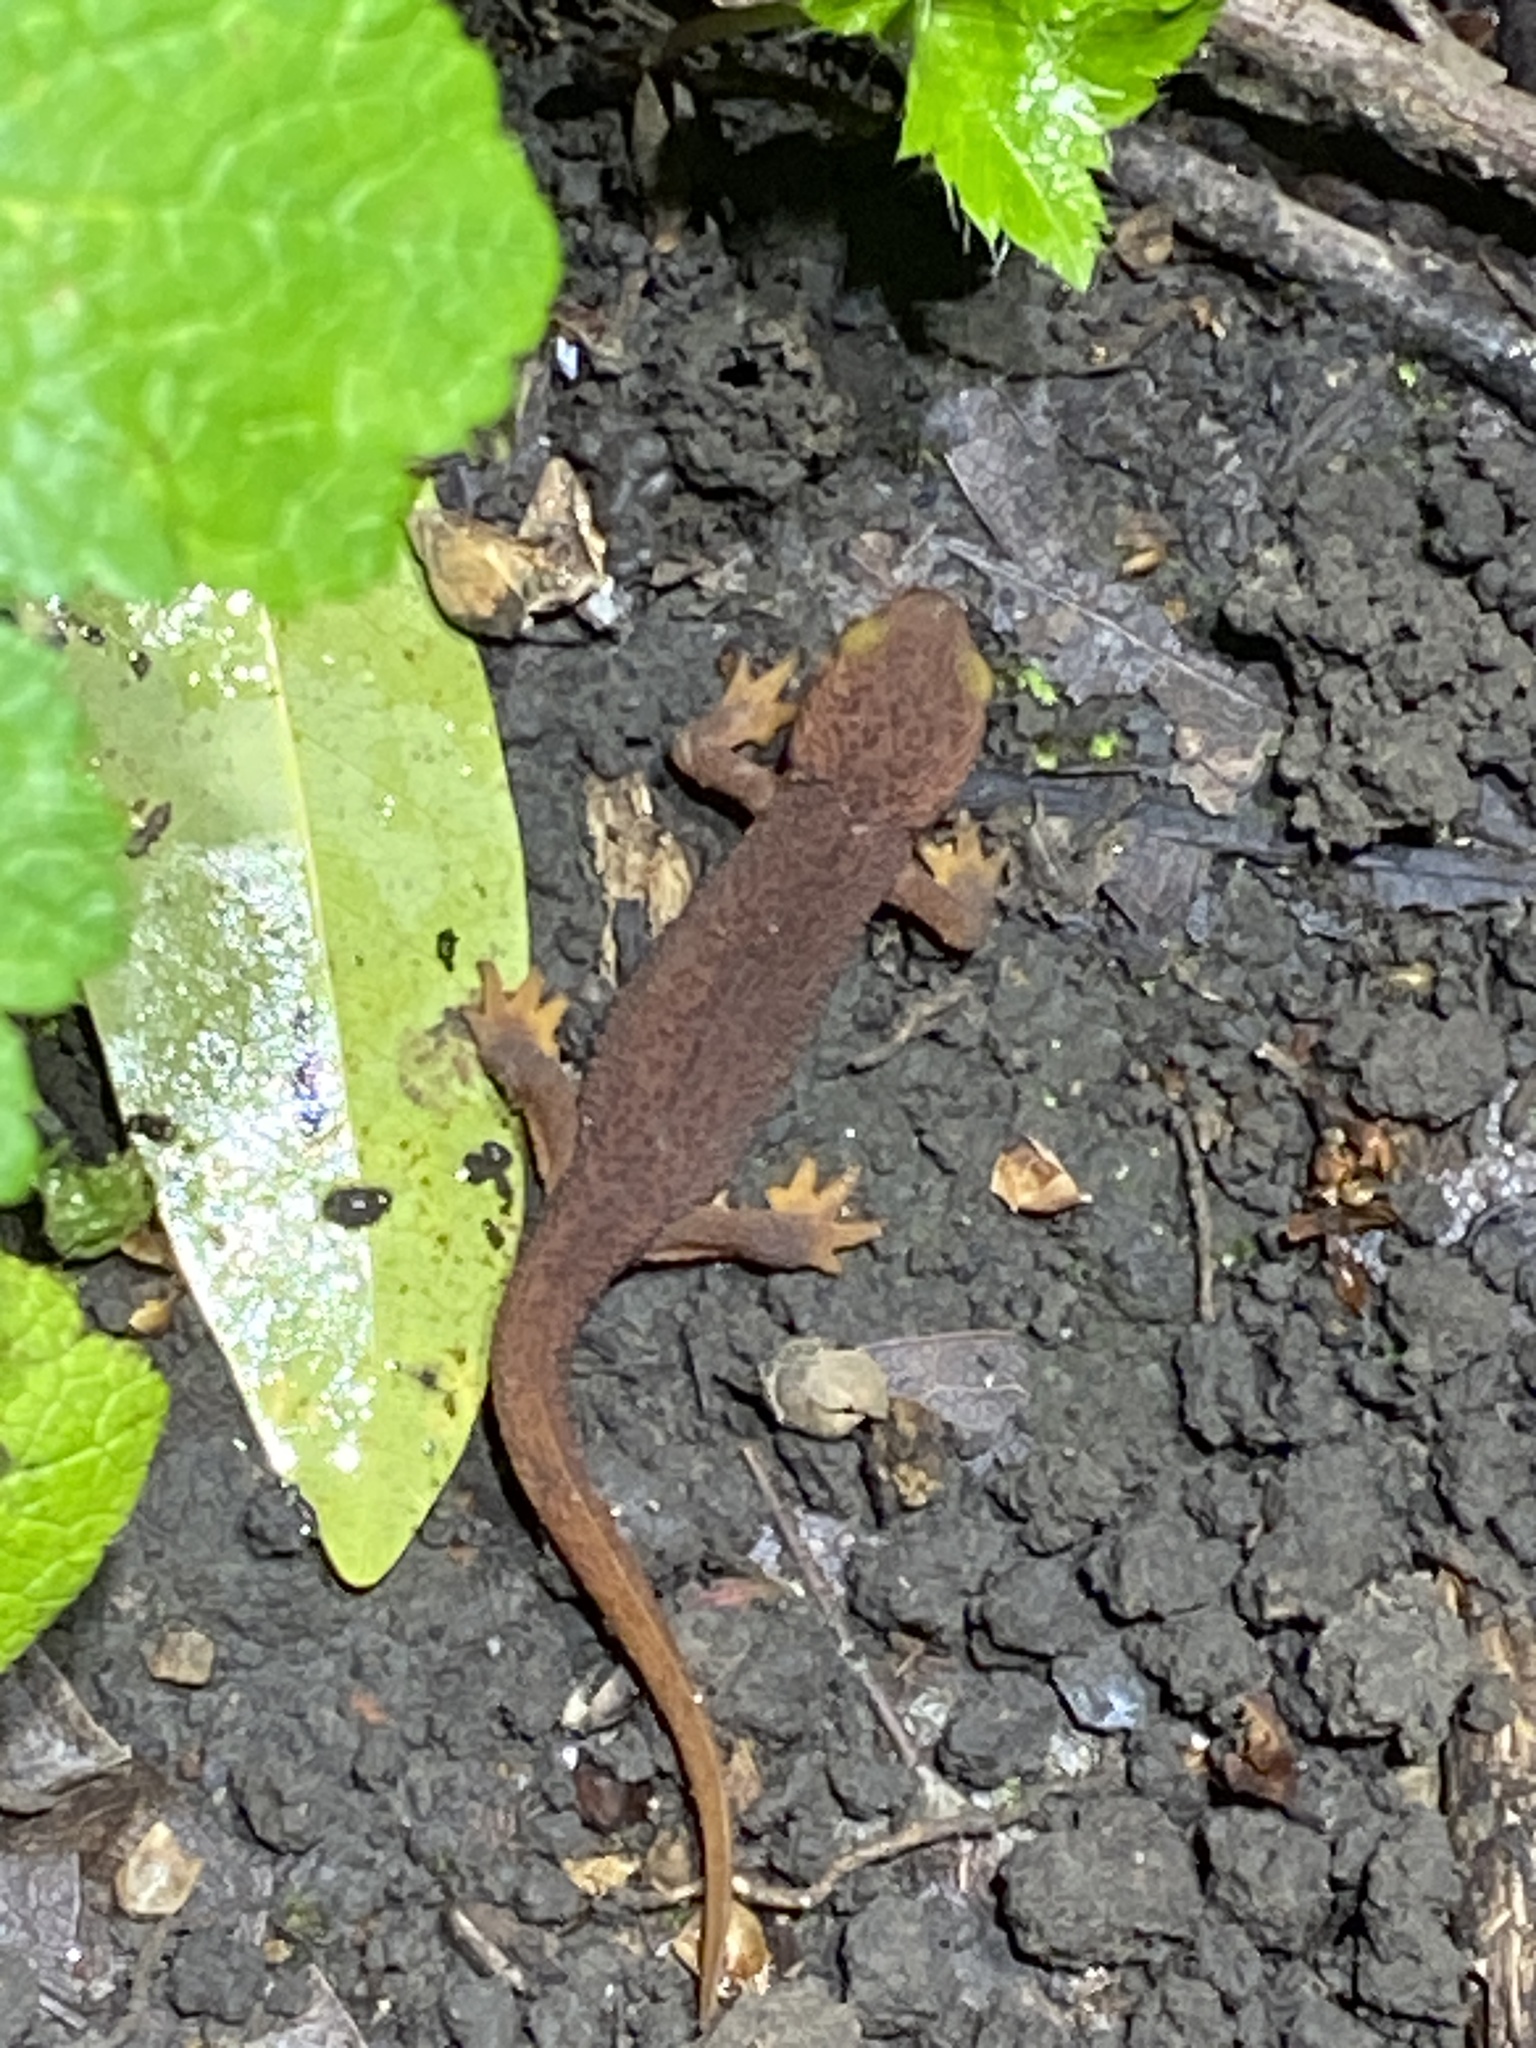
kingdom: Animalia
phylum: Chordata
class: Amphibia
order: Caudata
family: Salamandridae
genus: Taricha
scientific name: Taricha torosa
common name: California newt
